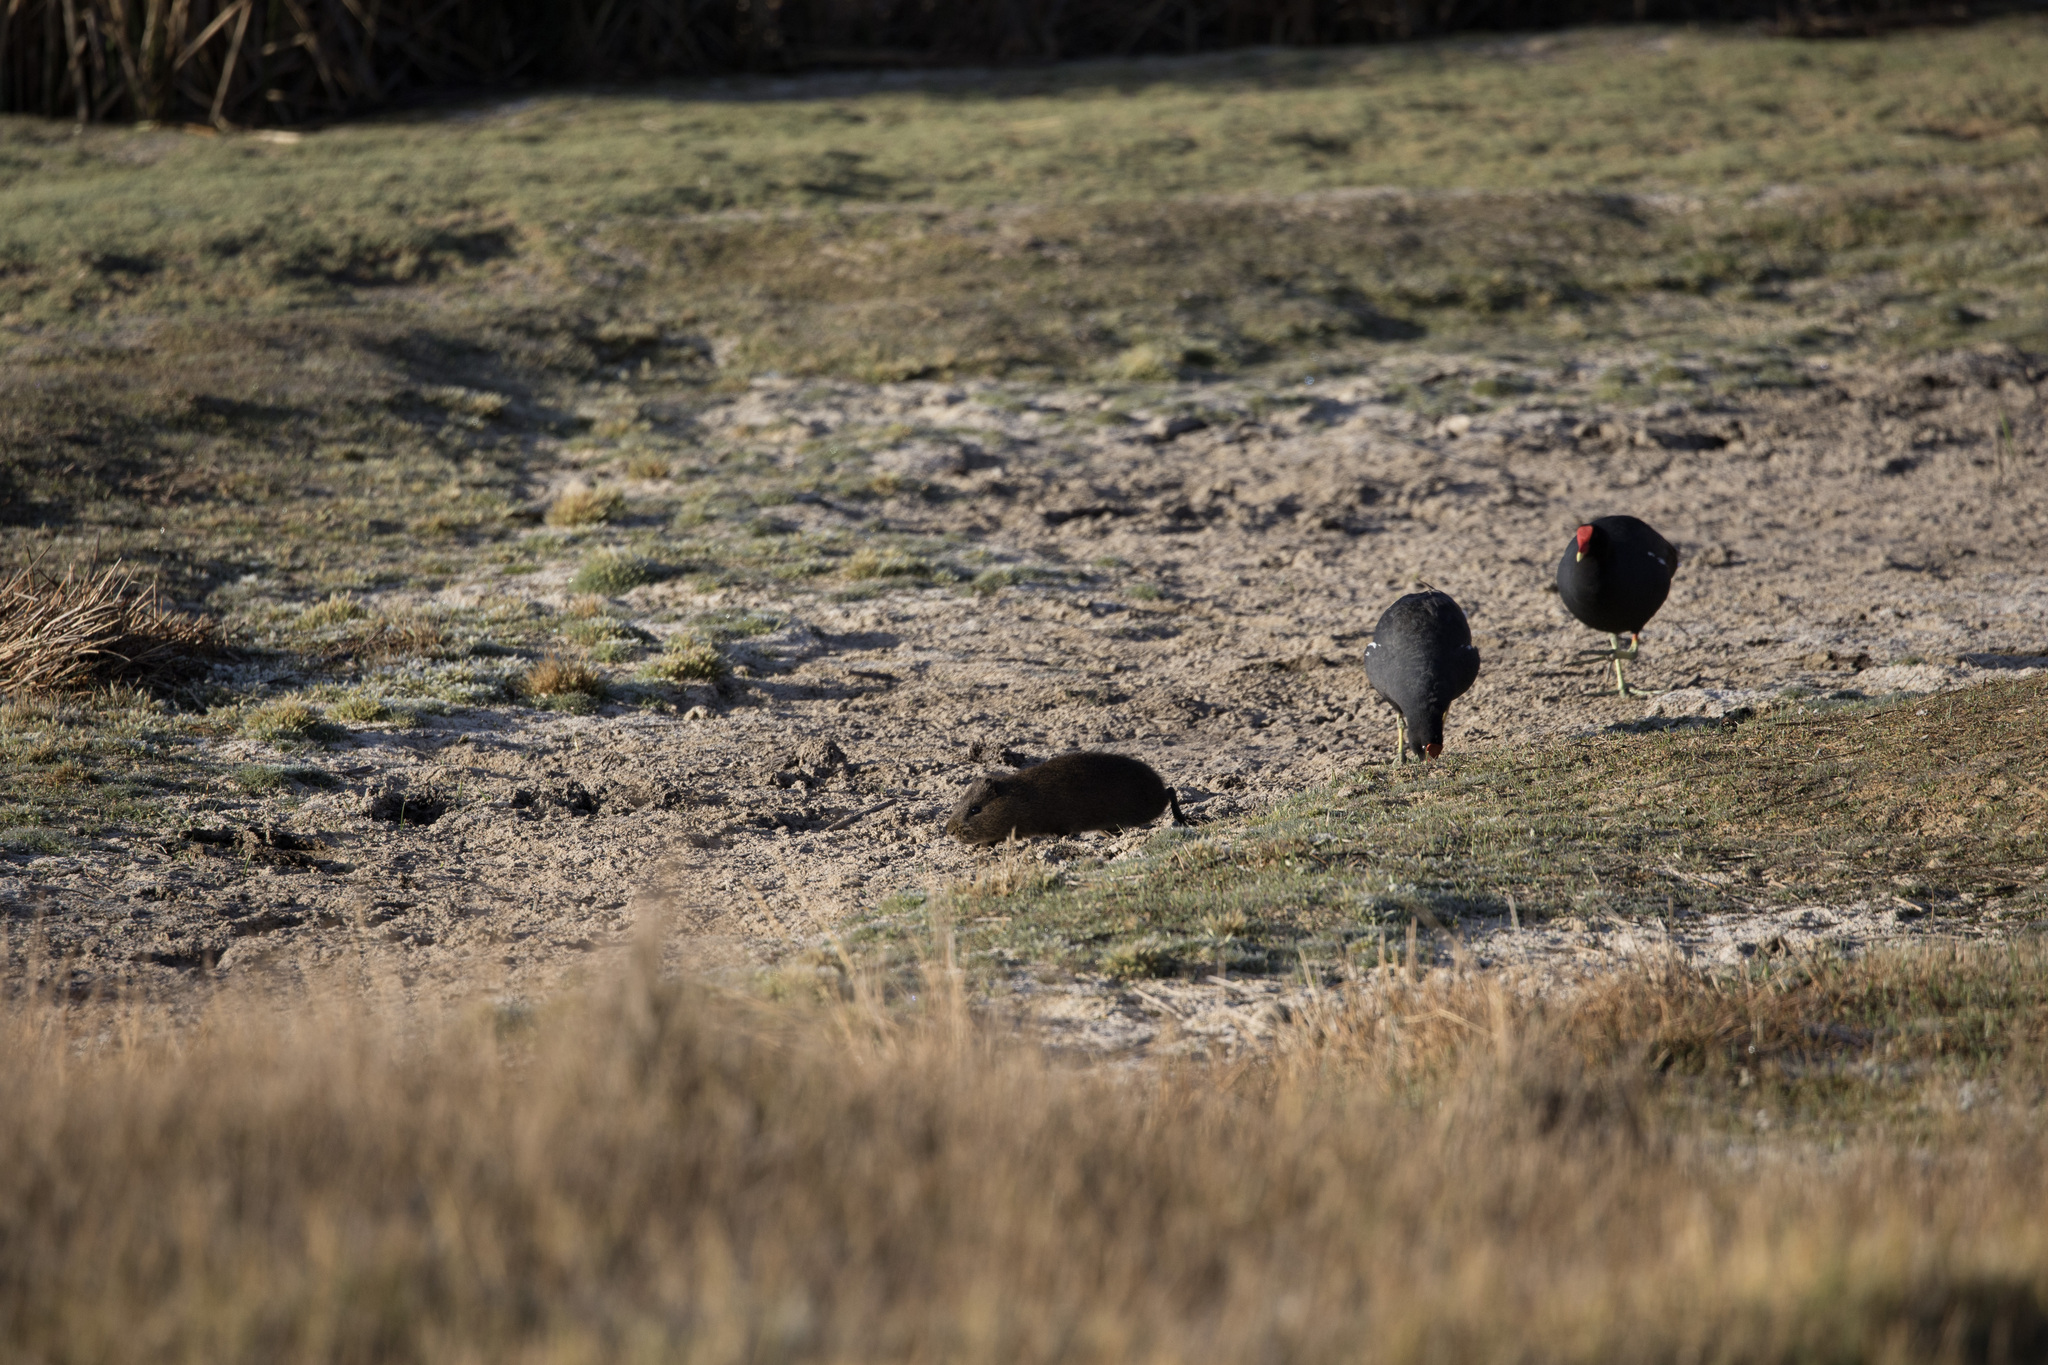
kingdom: Animalia
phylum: Chordata
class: Mammalia
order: Rodentia
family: Caviidae
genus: Cavia
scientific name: Cavia tschudii
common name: Montane guinea pig
